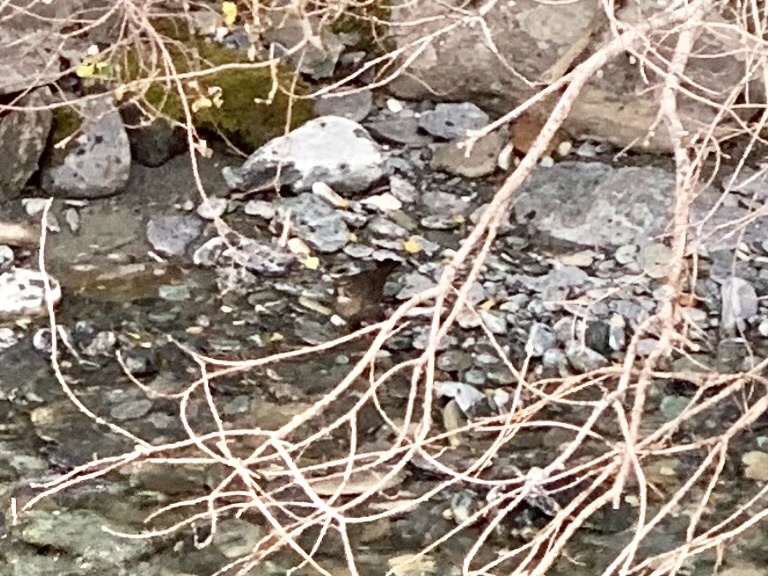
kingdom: Animalia
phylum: Chordata
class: Aves
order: Passeriformes
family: Cinclidae
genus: Cinclus
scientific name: Cinclus cinclus
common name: White-throated dipper
